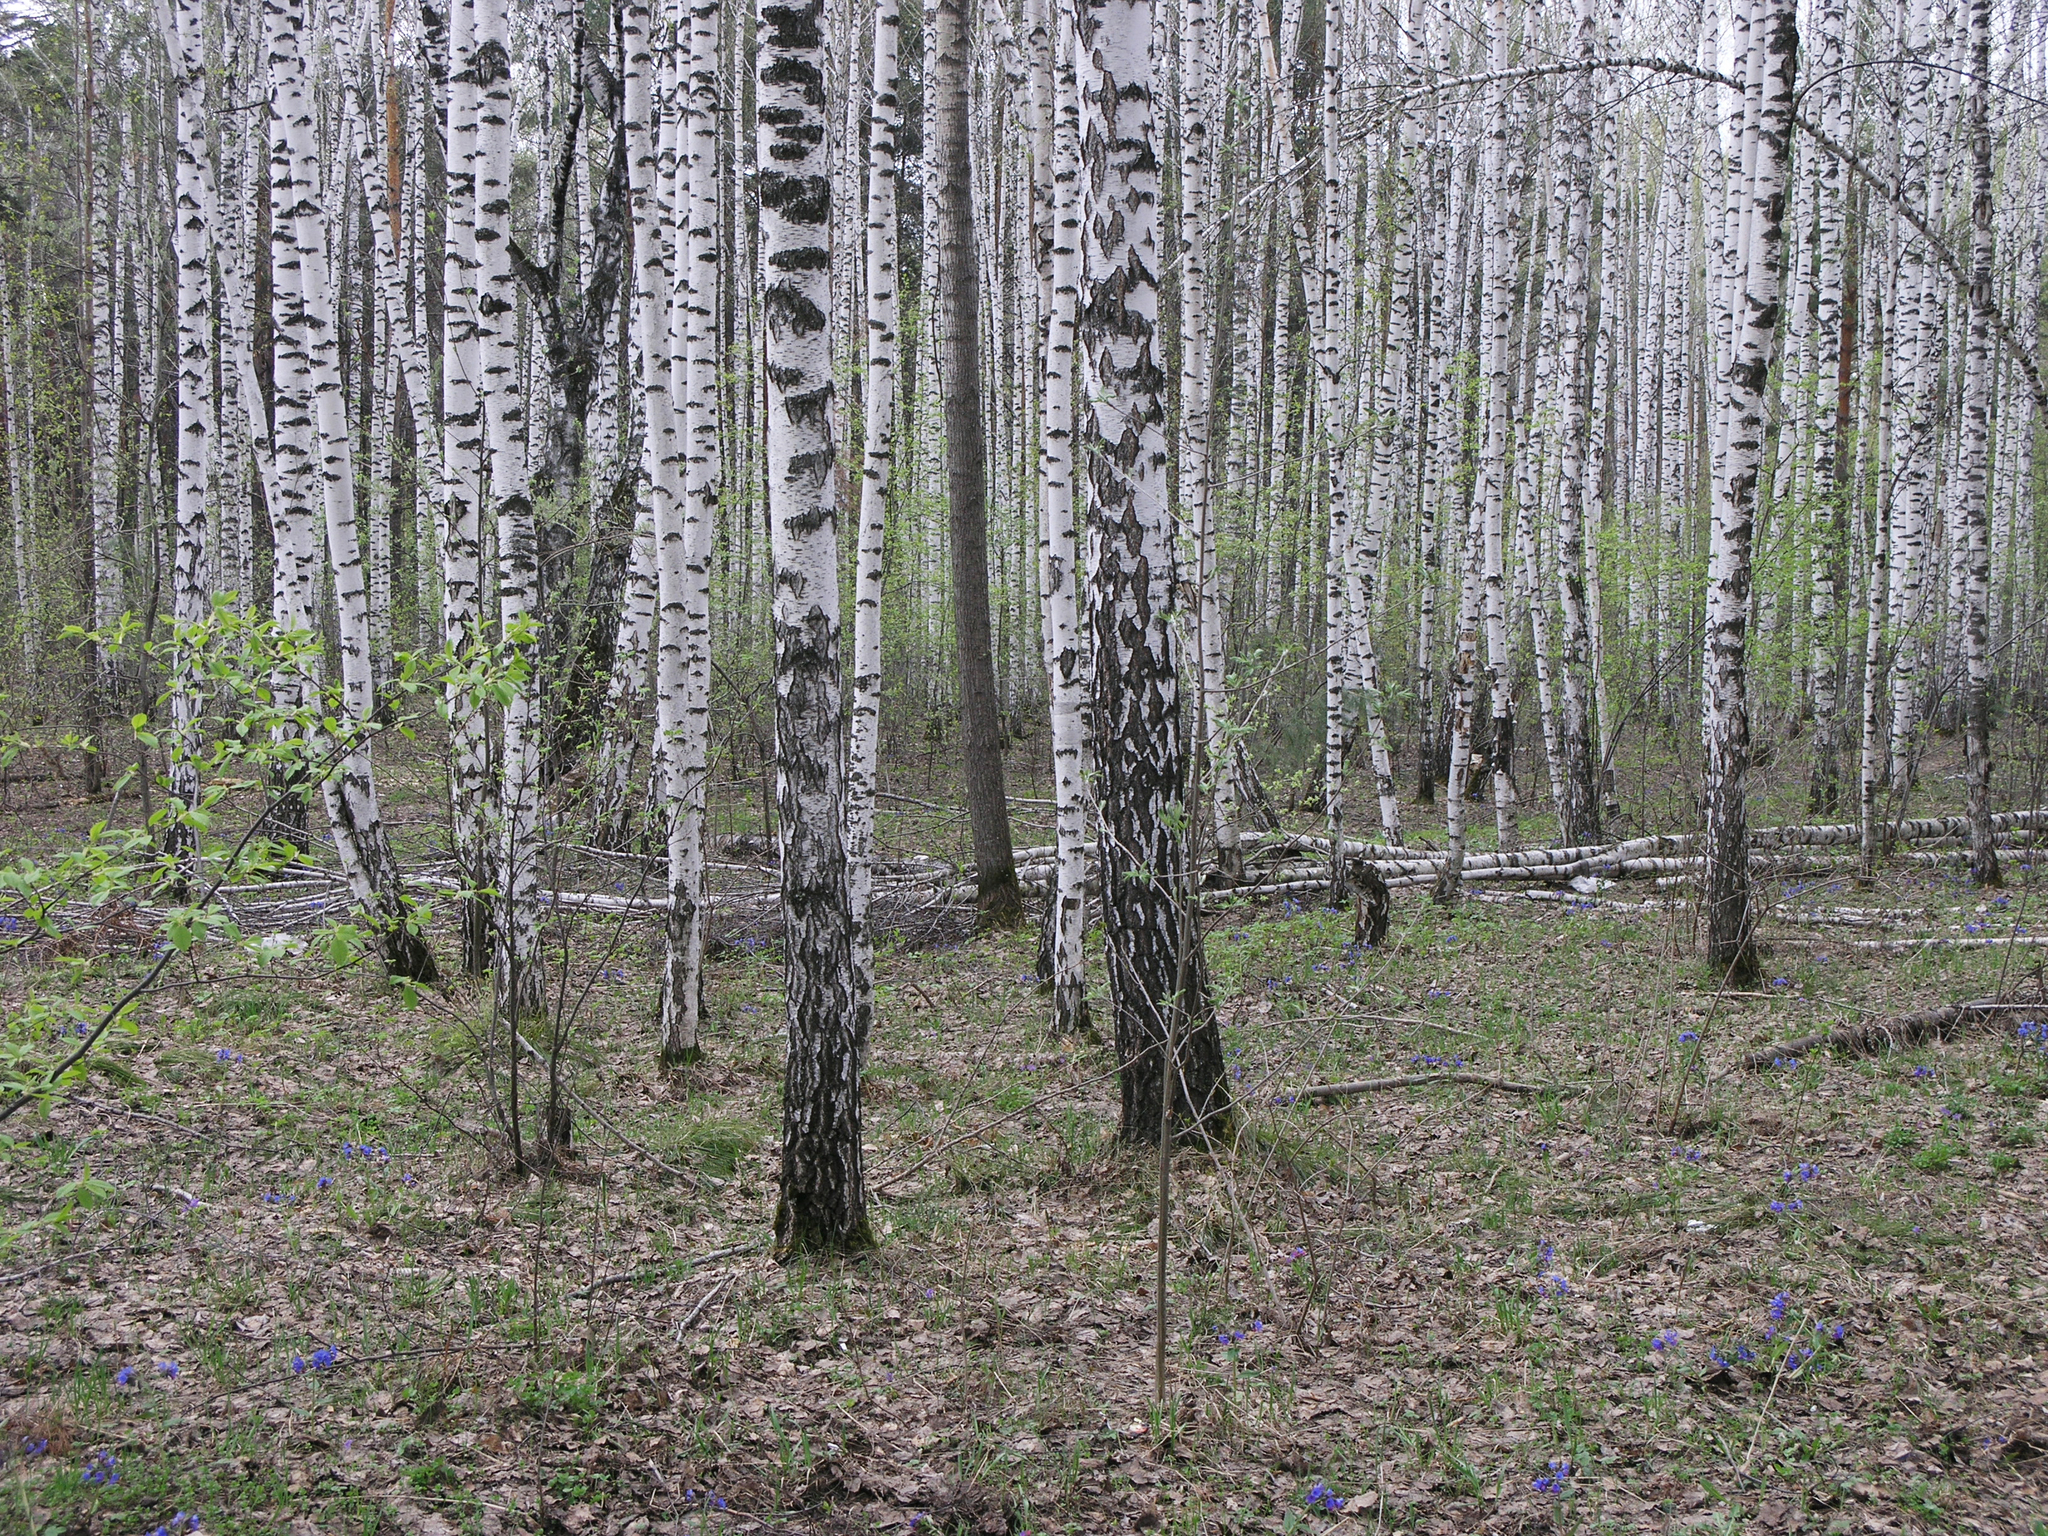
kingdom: Plantae
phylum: Tracheophyta
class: Magnoliopsida
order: Fagales
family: Betulaceae
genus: Betula
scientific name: Betula pendula
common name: Silver birch
